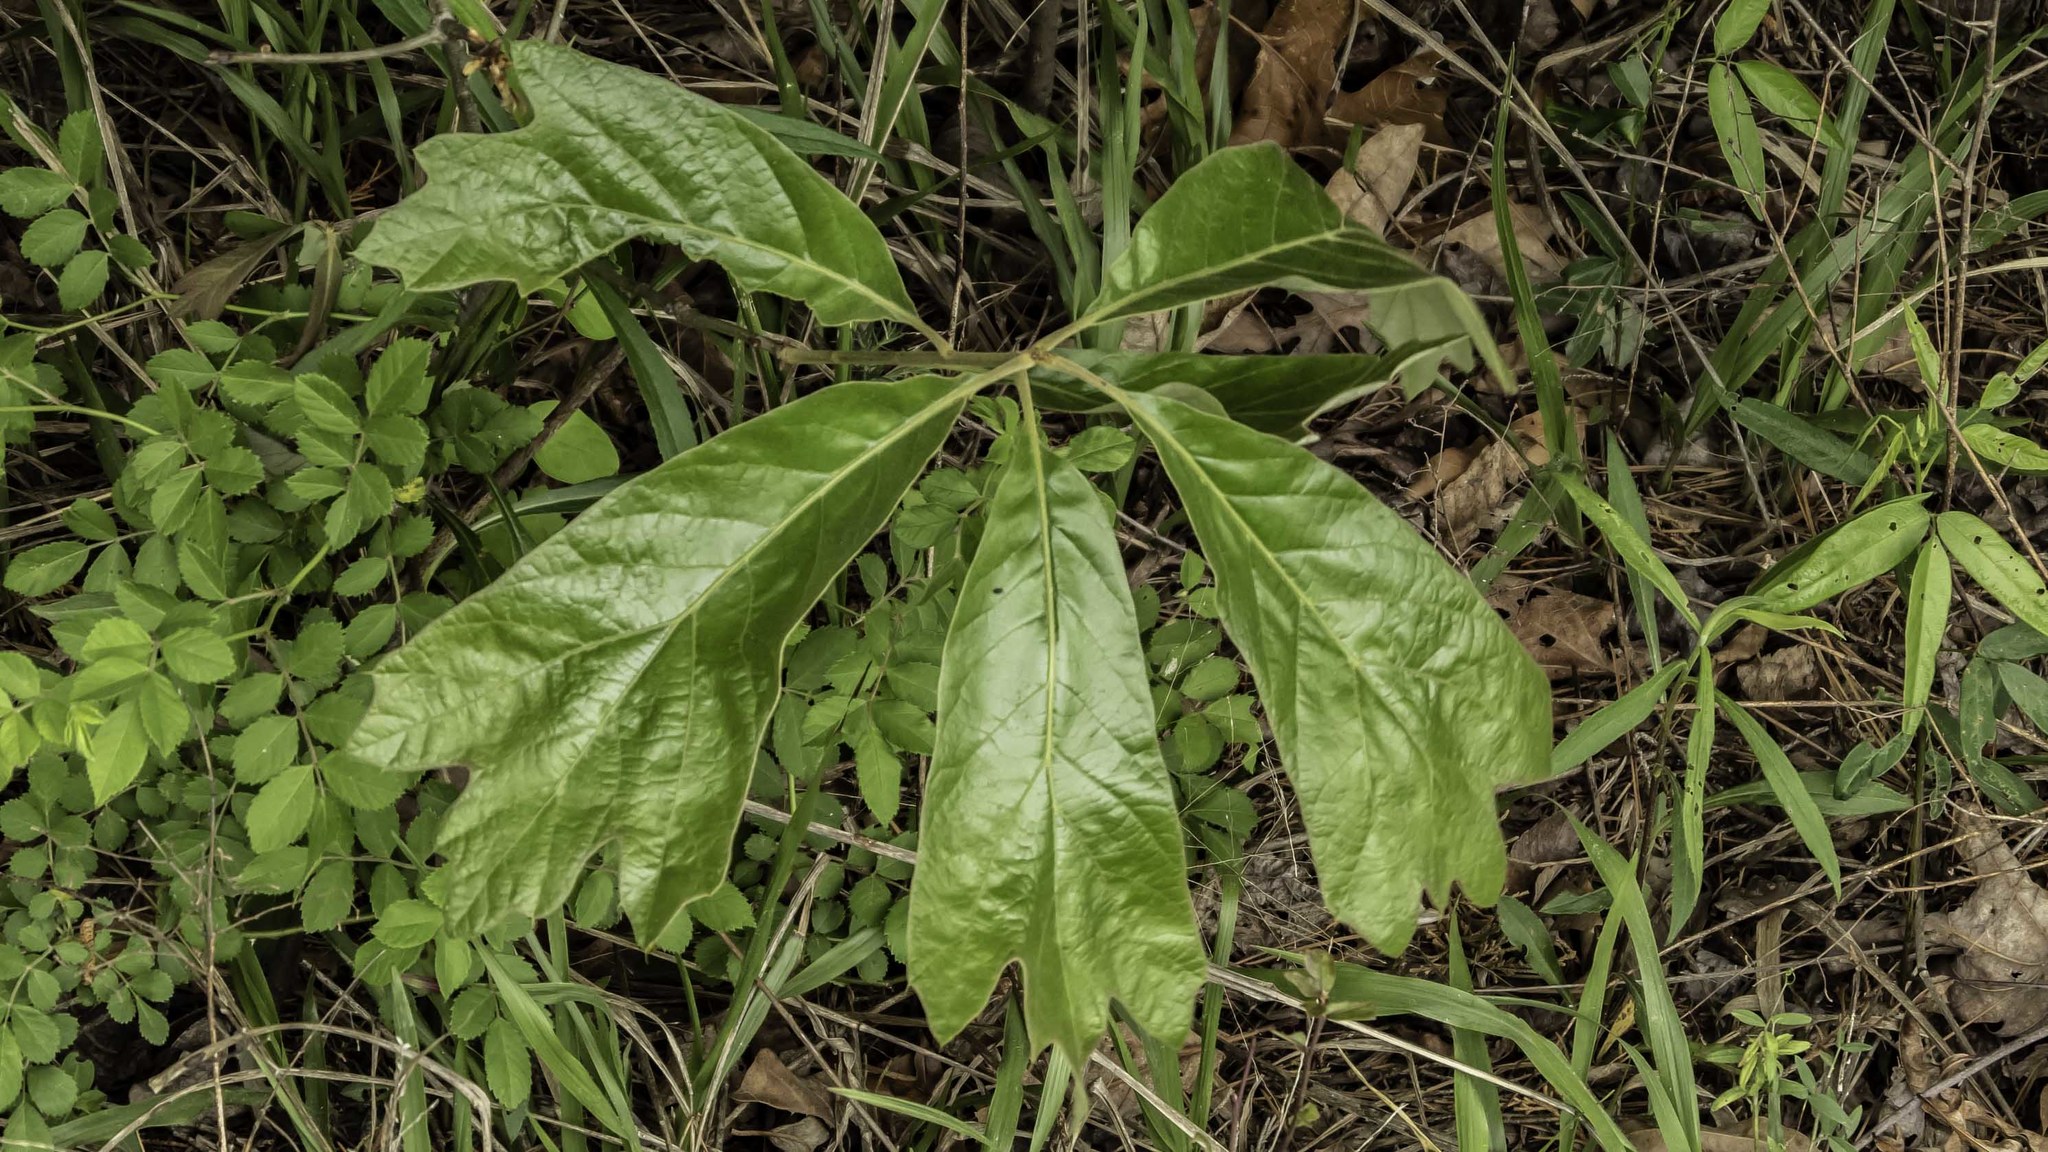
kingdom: Plantae
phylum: Tracheophyta
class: Magnoliopsida
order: Fagales
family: Fagaceae
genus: Quercus
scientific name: Quercus falcata
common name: Southern red oak
